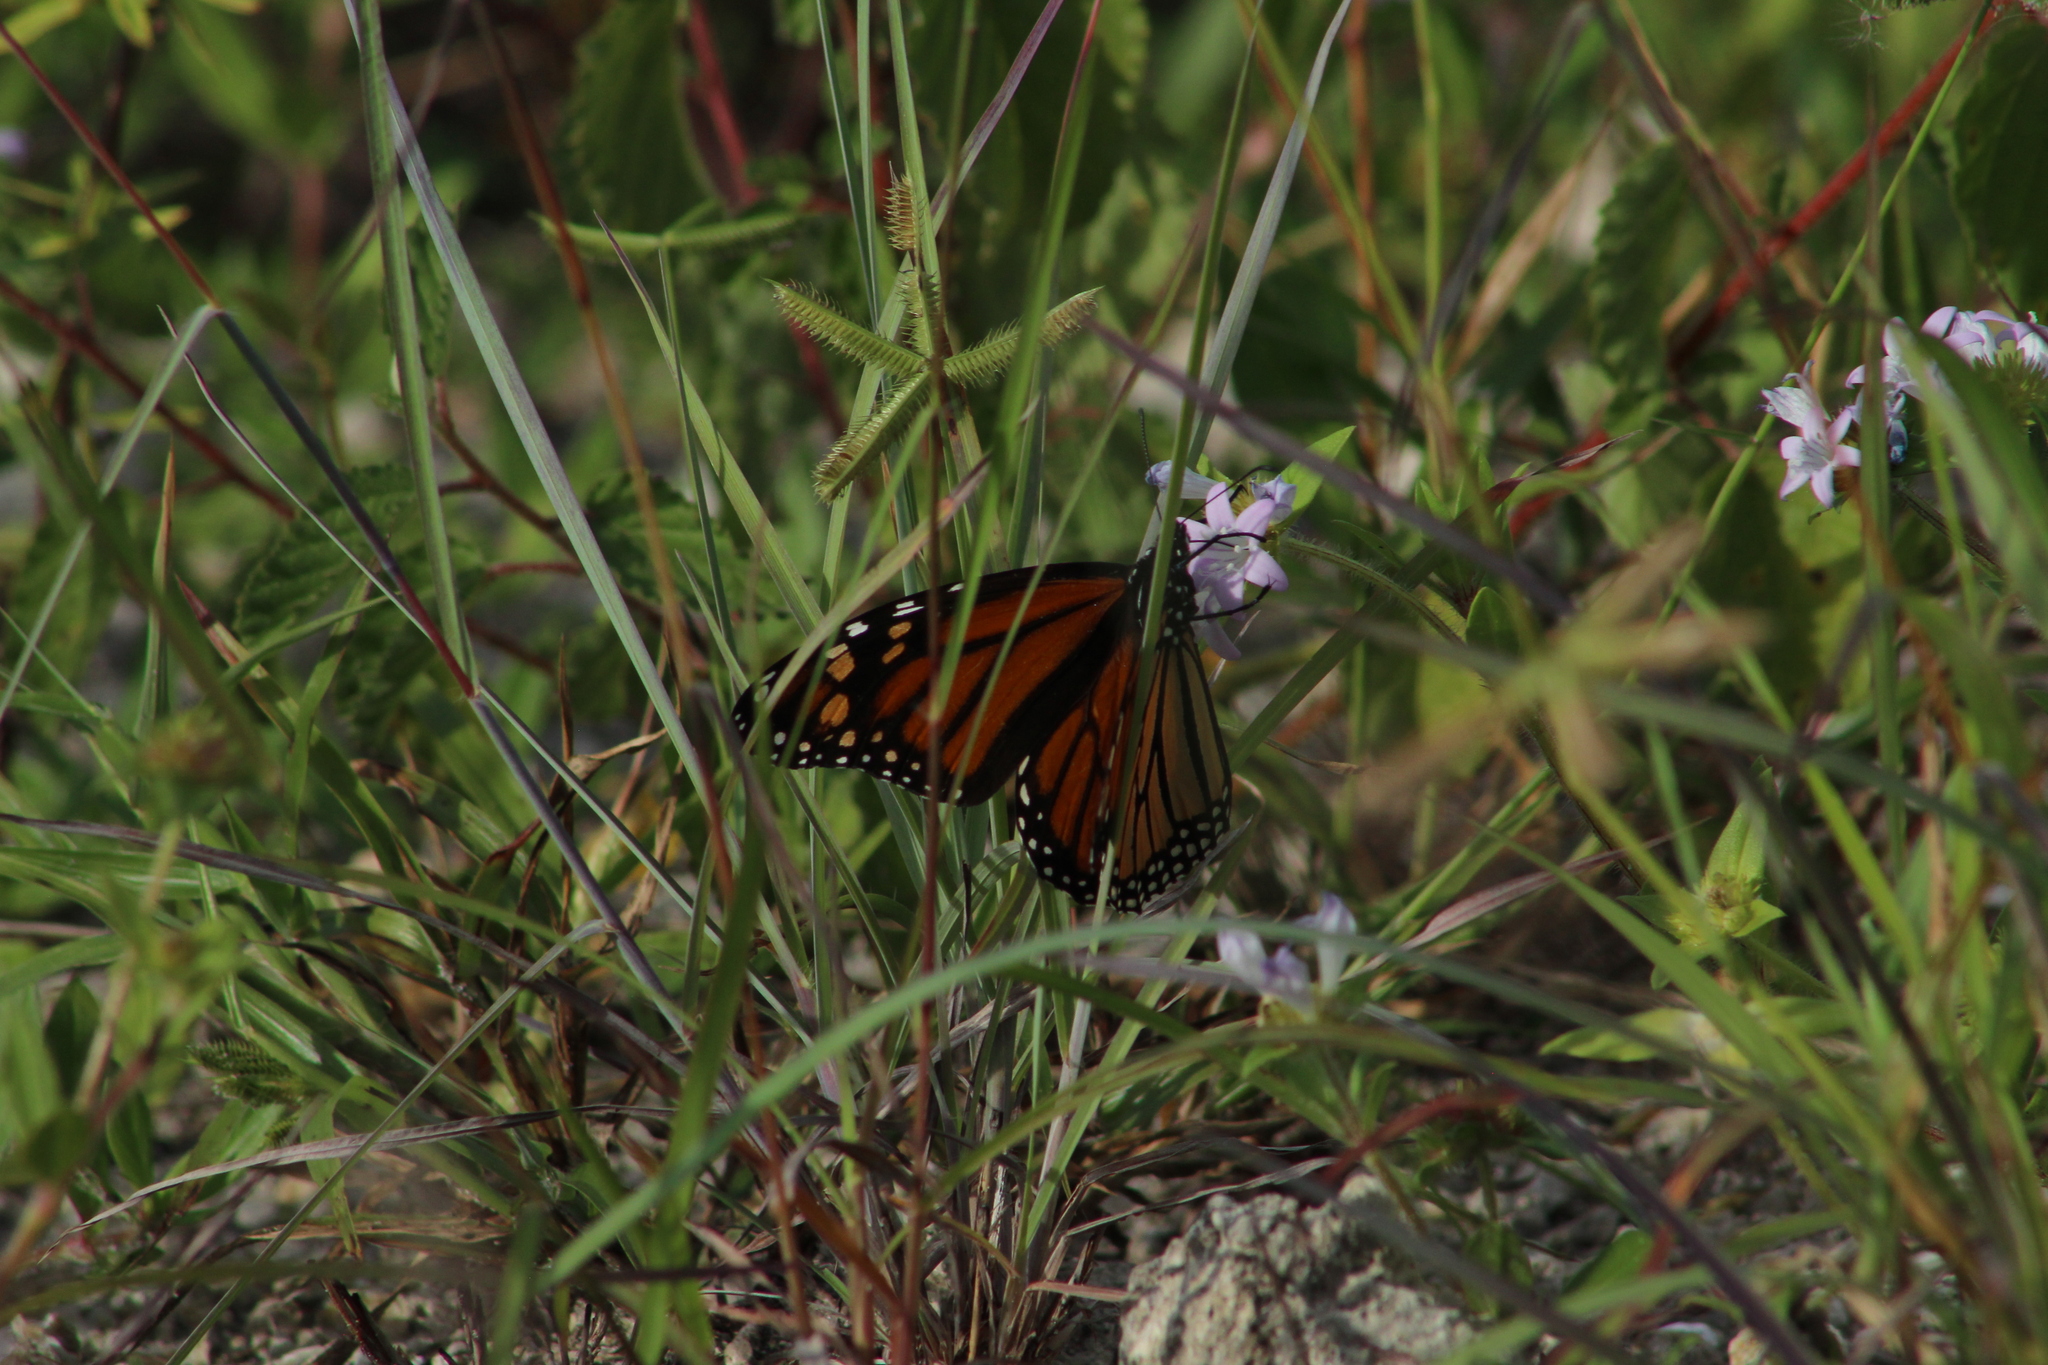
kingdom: Animalia
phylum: Arthropoda
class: Insecta
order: Lepidoptera
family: Nymphalidae
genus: Danaus
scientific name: Danaus plexippus
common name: Monarch
